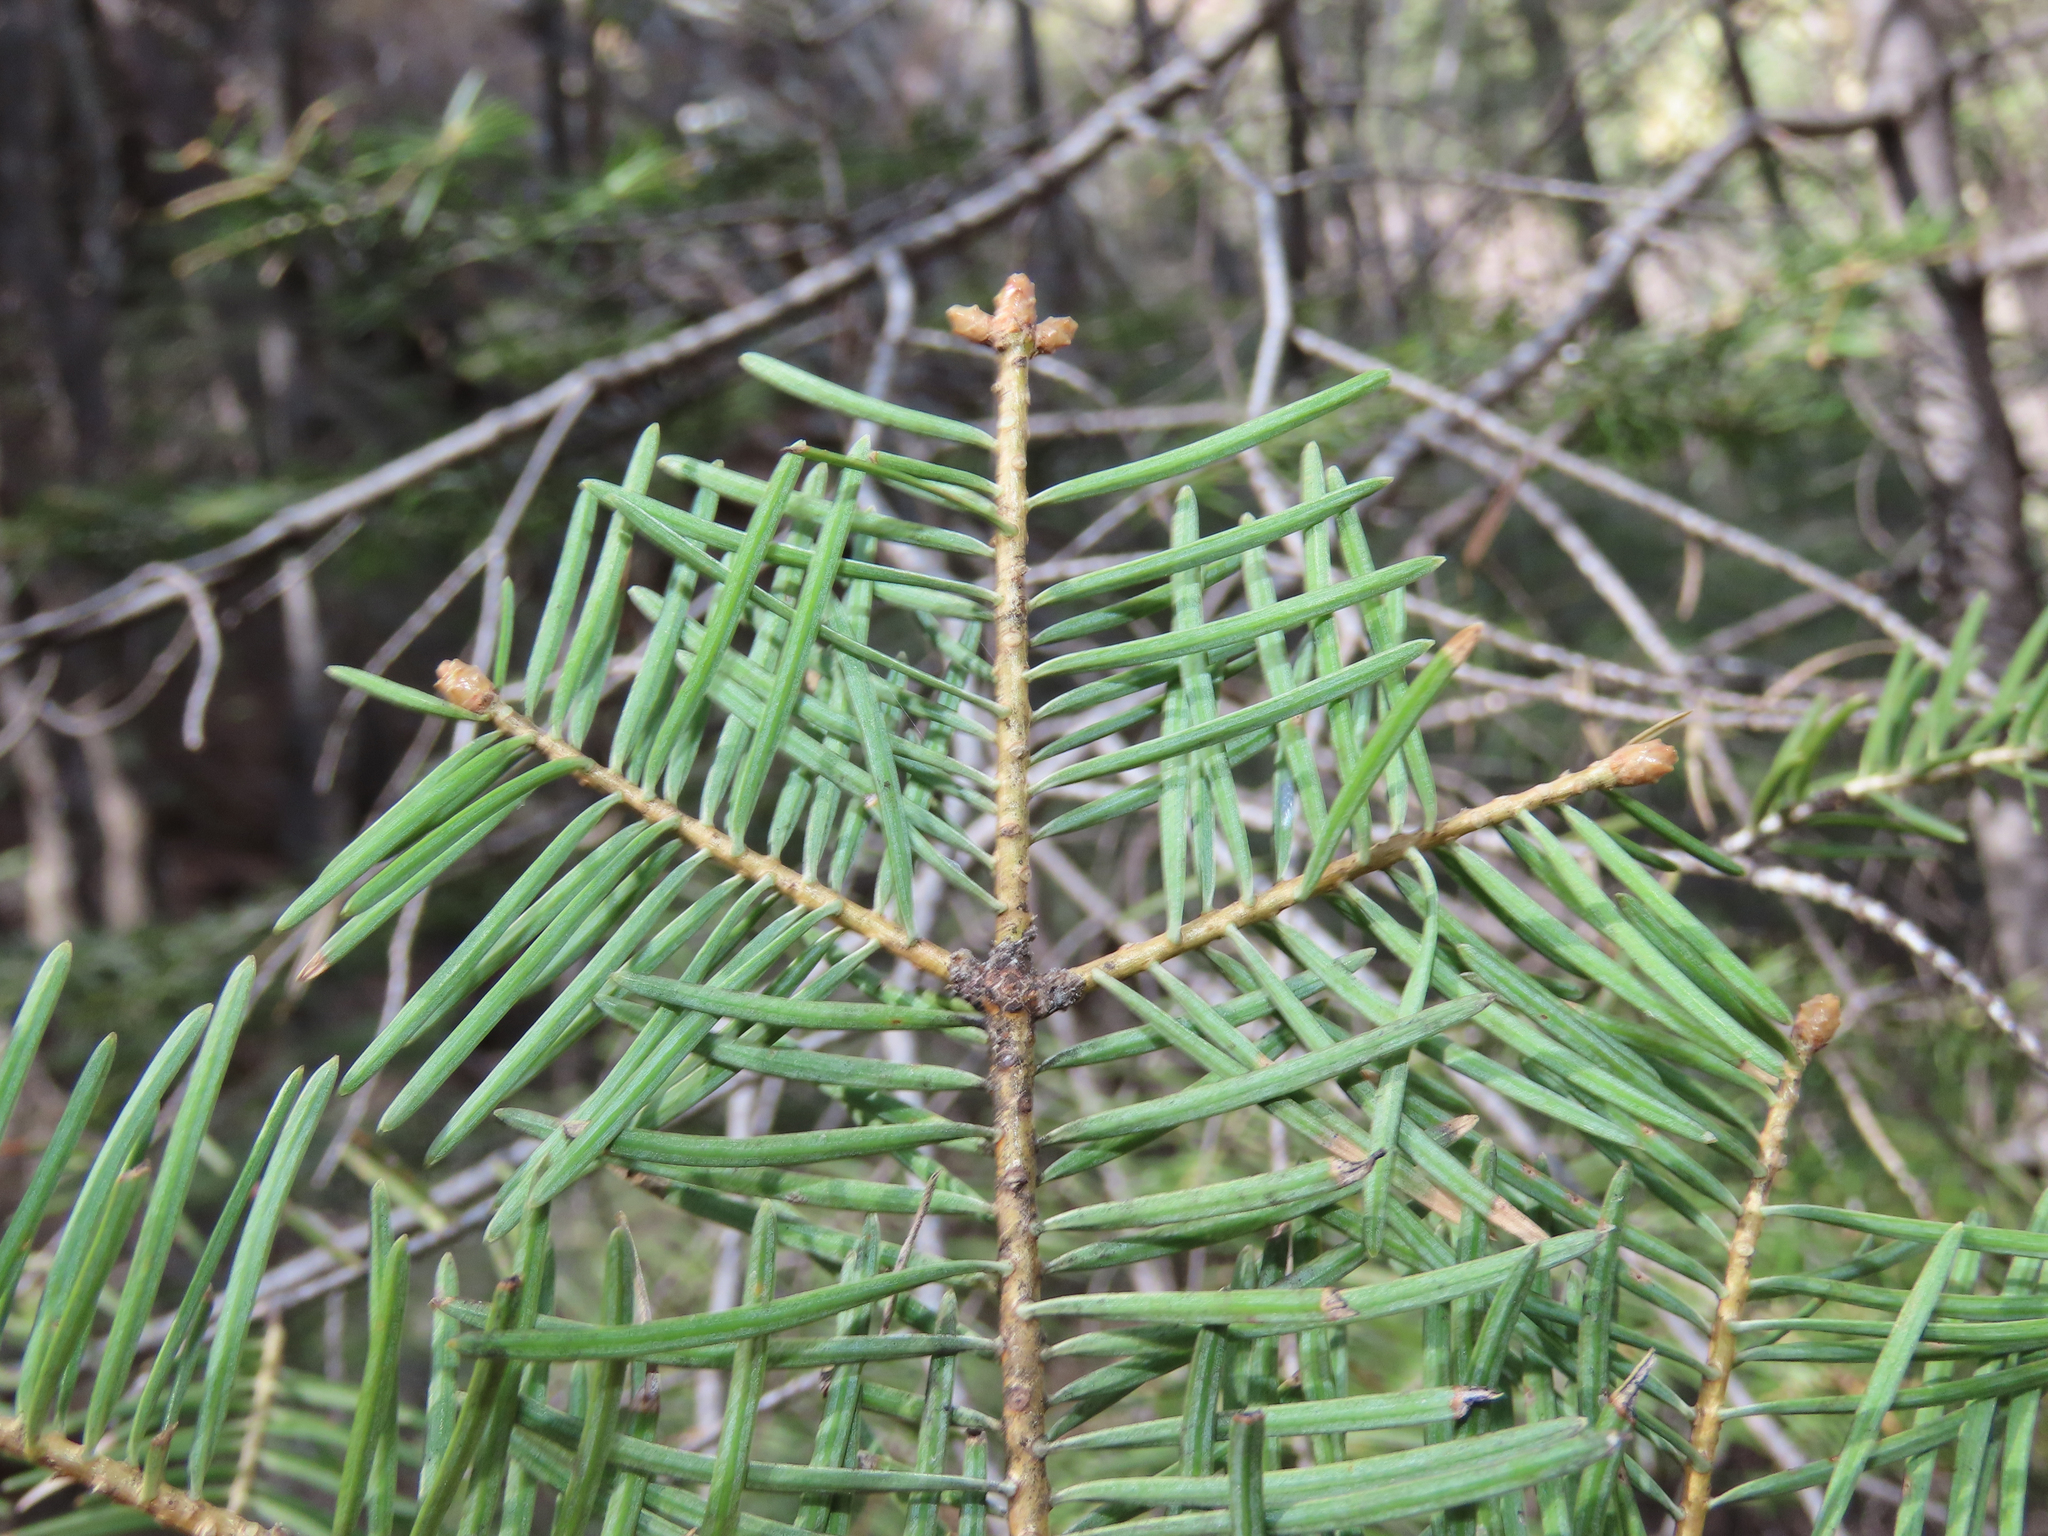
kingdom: Plantae
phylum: Tracheophyta
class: Pinopsida
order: Pinales
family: Pinaceae
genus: Abies
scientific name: Abies concolor
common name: Colorado fir
